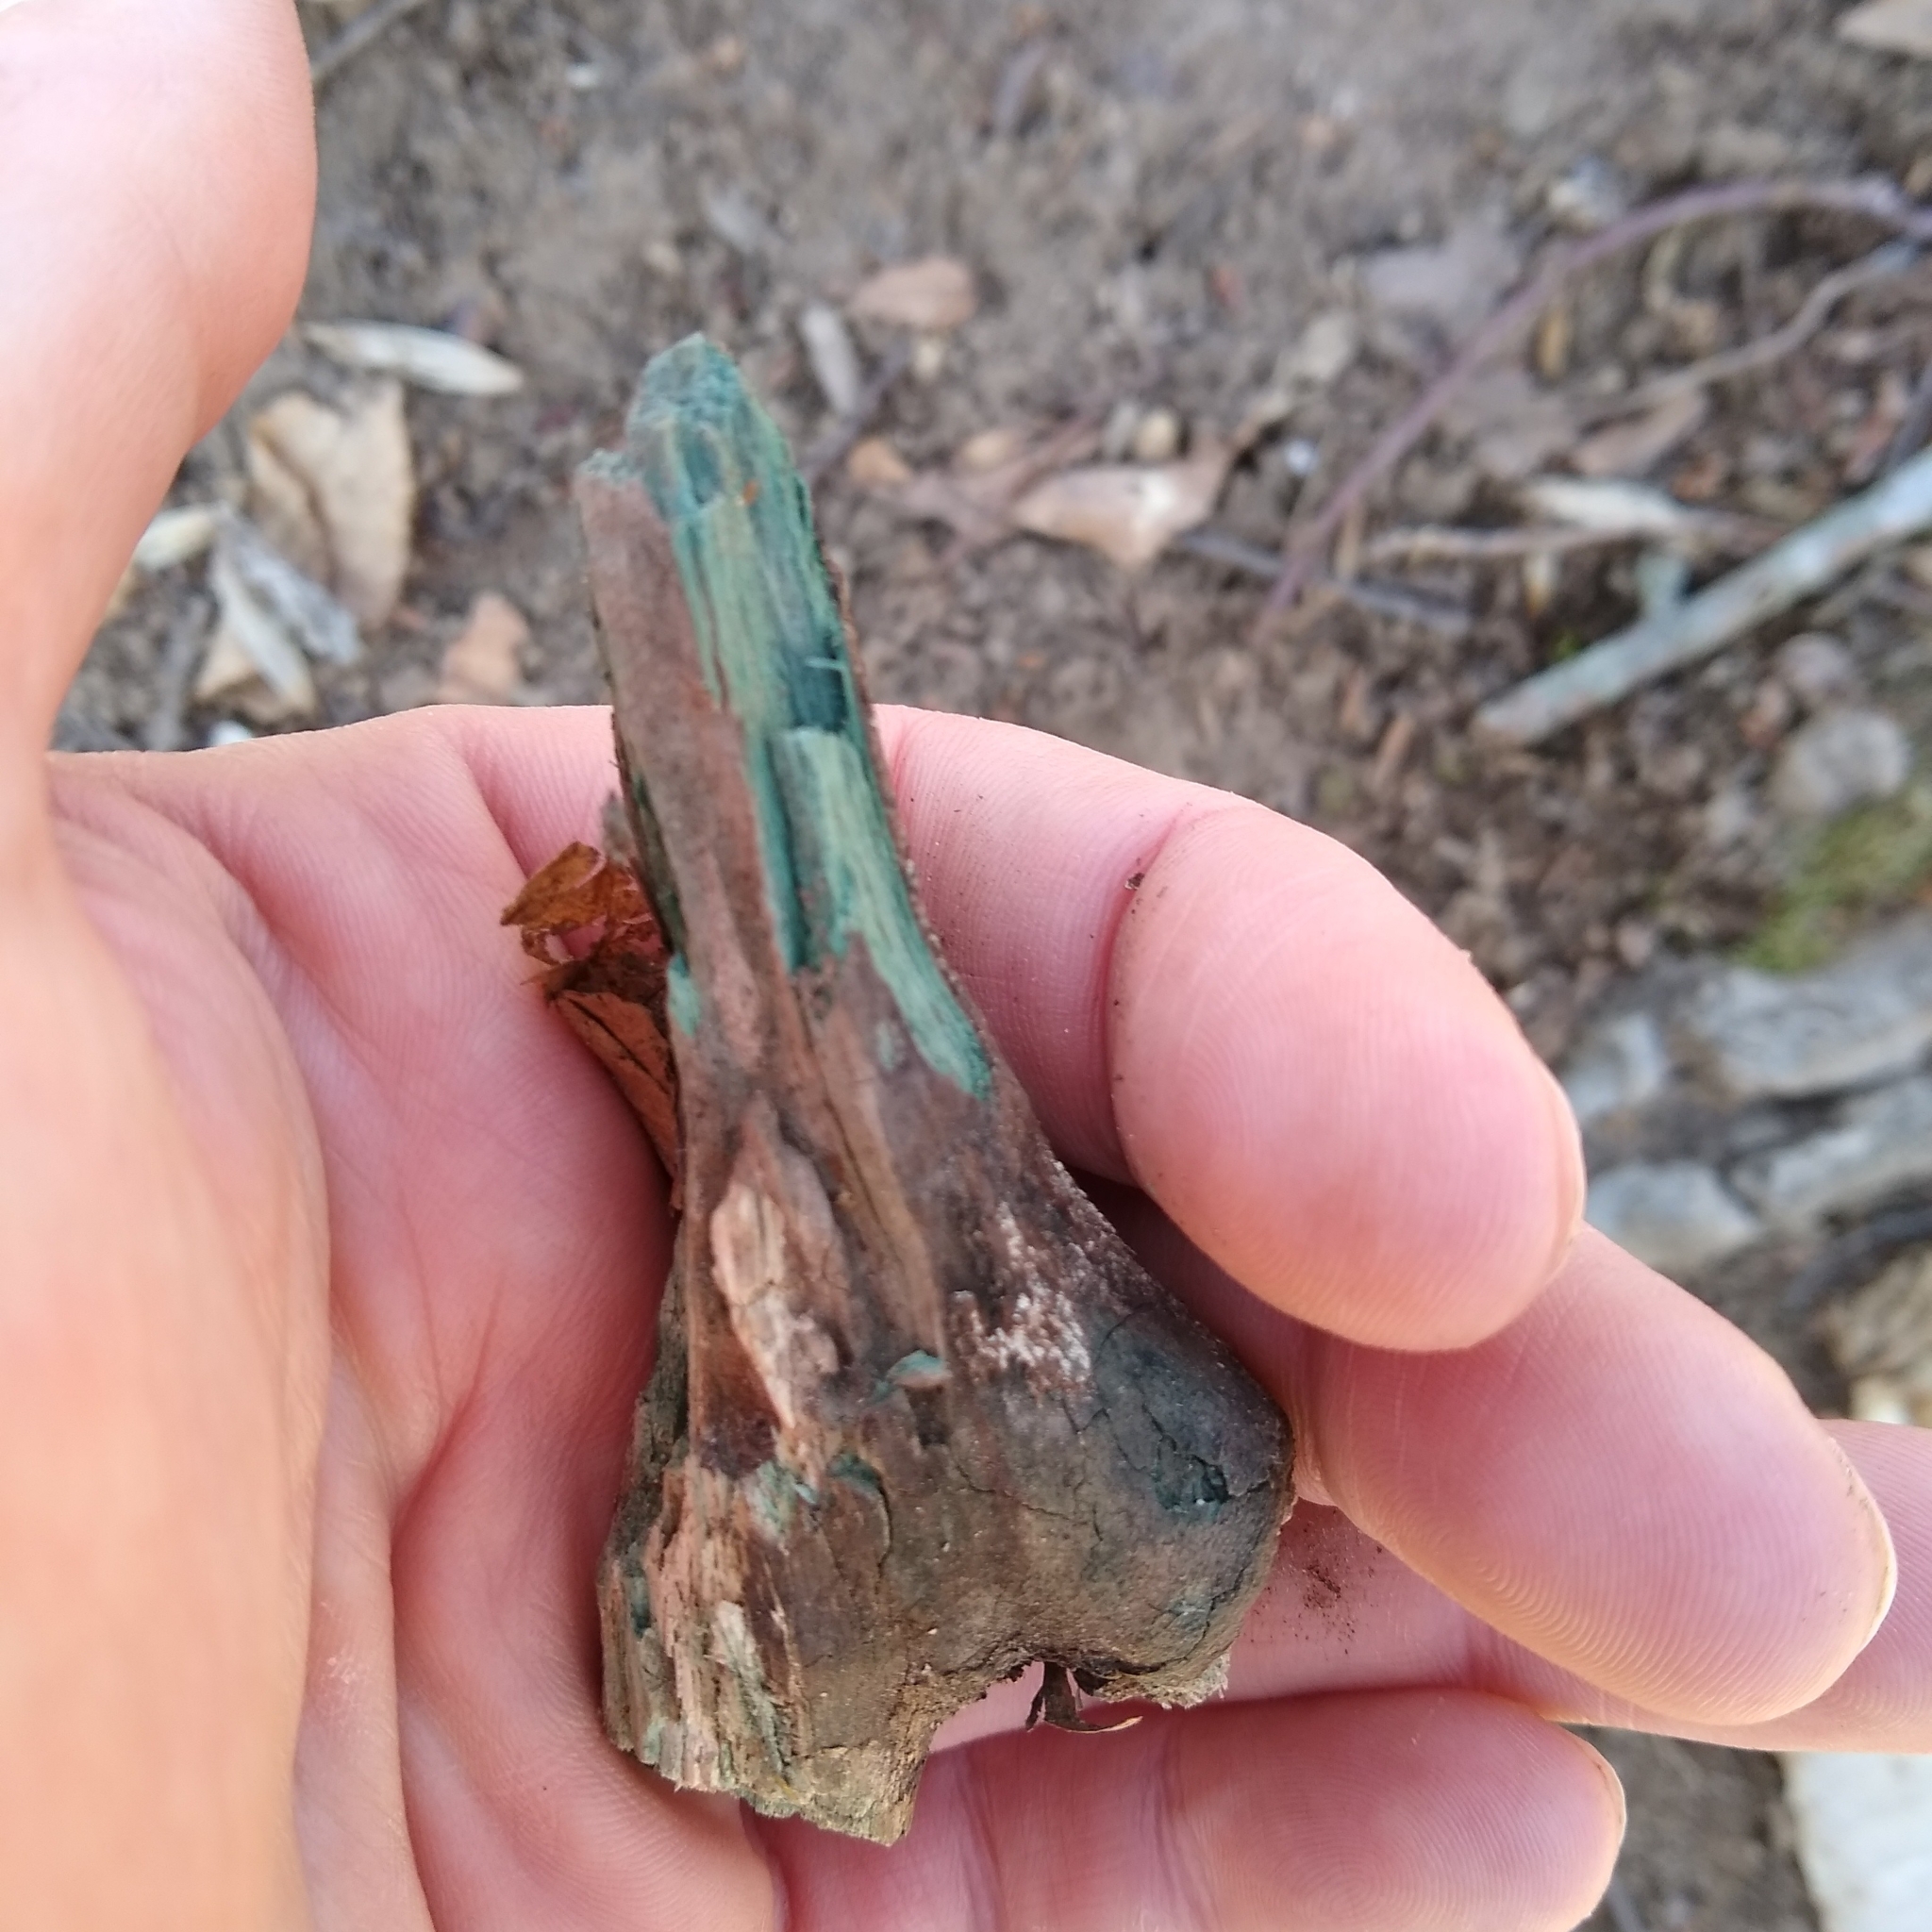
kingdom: Fungi
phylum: Ascomycota
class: Leotiomycetes
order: Helotiales
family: Chlorociboriaceae
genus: Chlorociboria
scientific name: Chlorociboria
